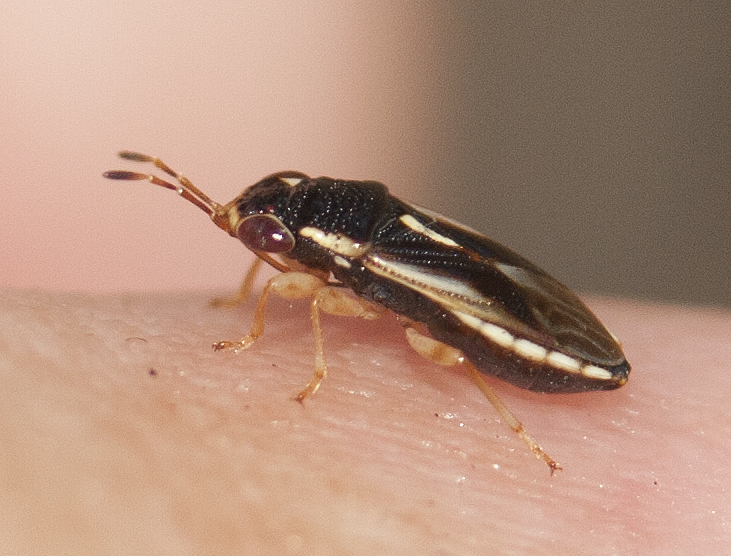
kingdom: Animalia
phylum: Arthropoda
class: Insecta
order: Hemiptera
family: Geocoridae
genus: Stylogeocoris
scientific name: Stylogeocoris elongatus
